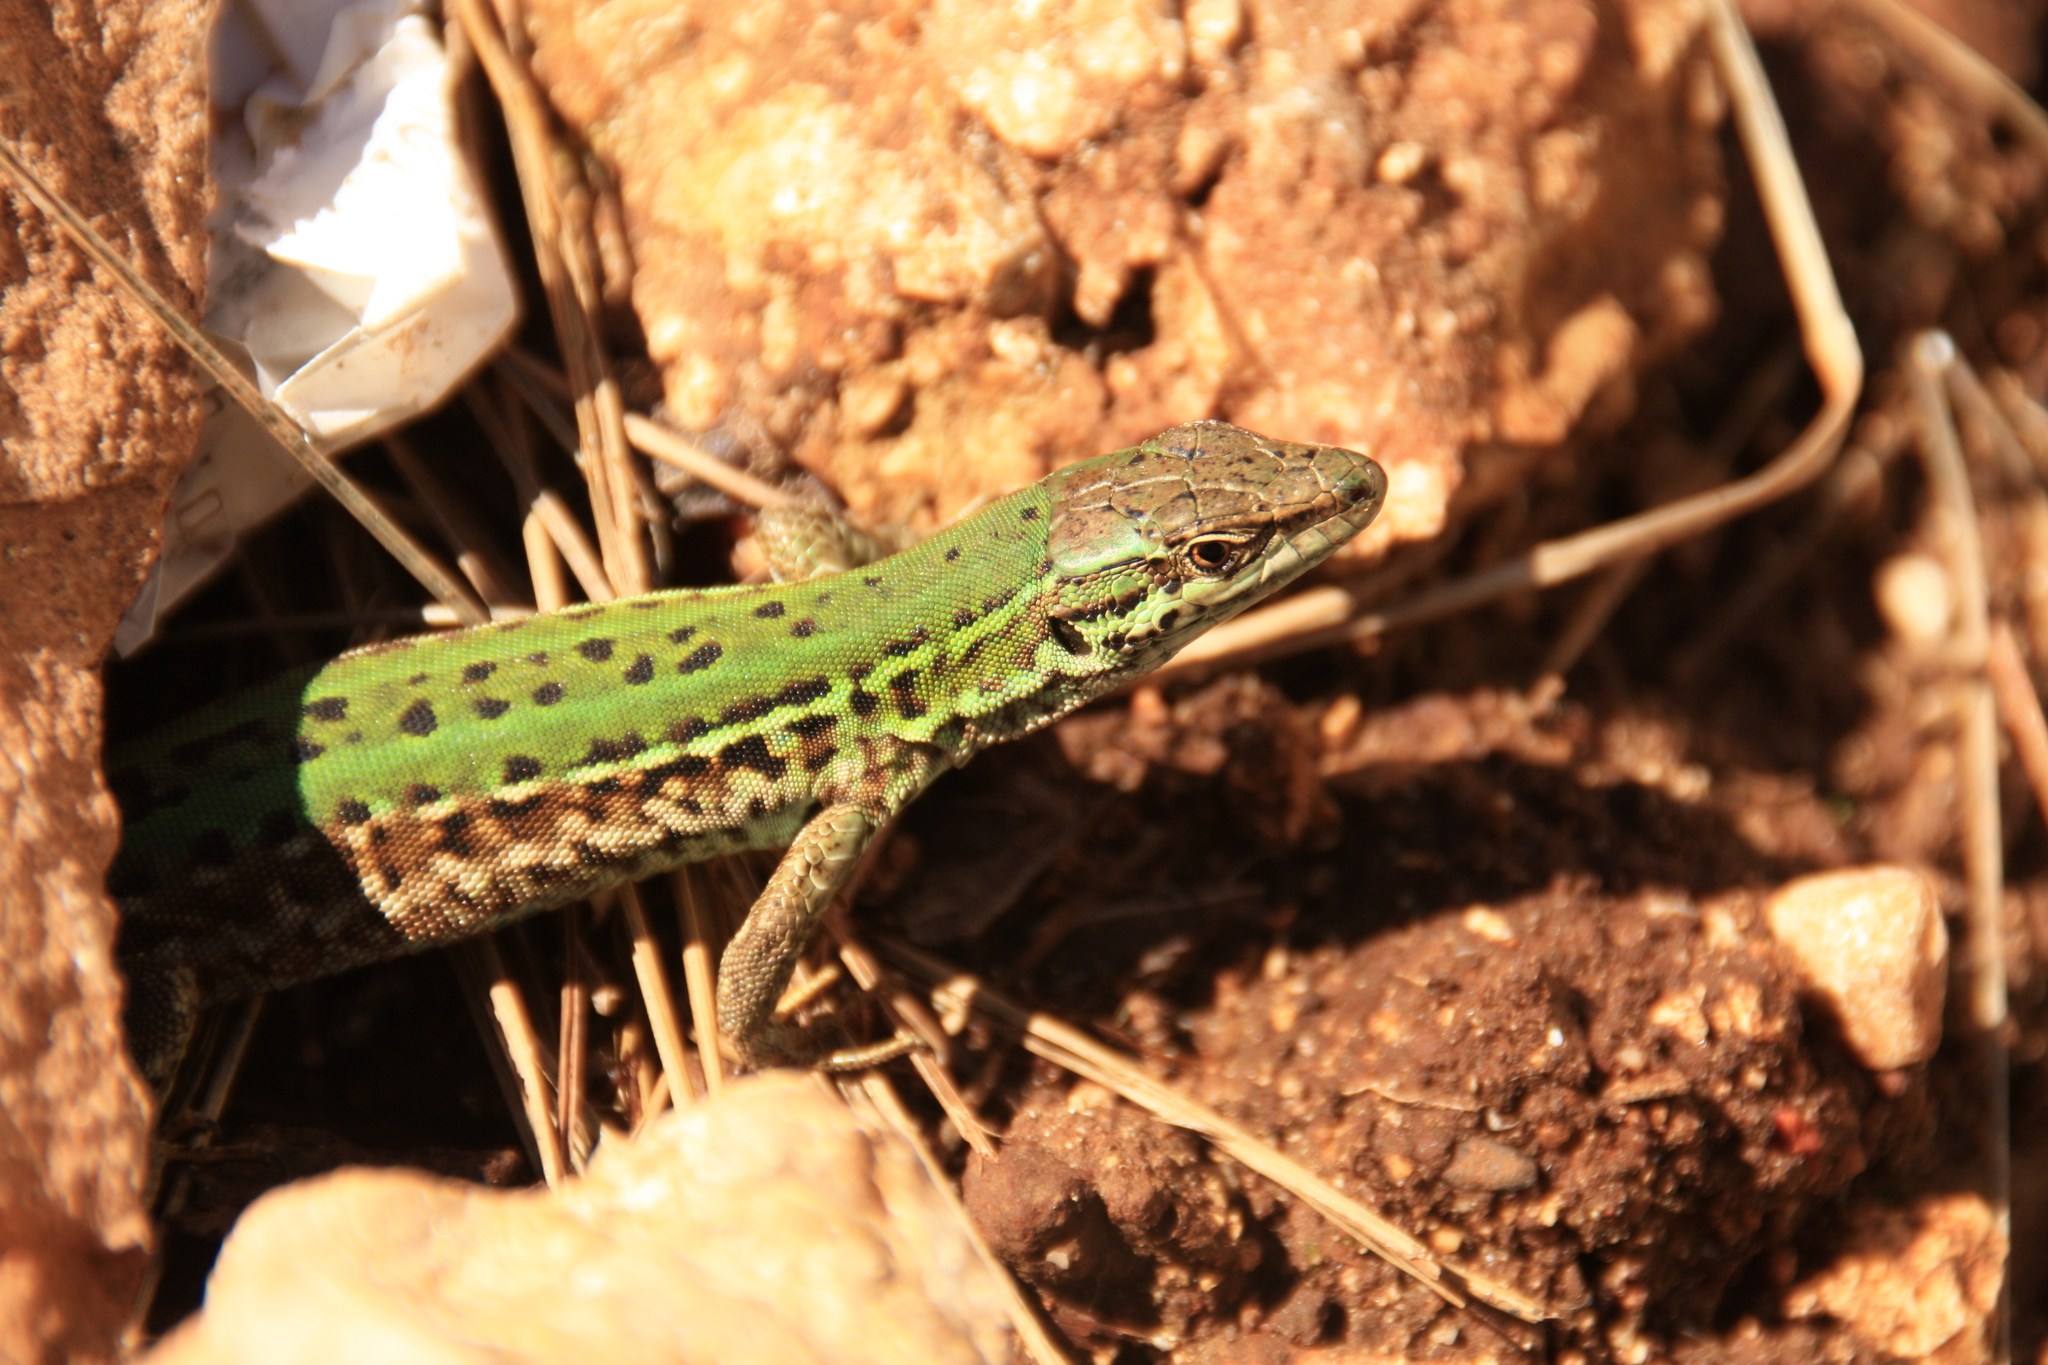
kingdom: Animalia
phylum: Chordata
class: Squamata
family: Lacertidae
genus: Podarcis
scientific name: Podarcis siculus
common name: Italian wall lizard
